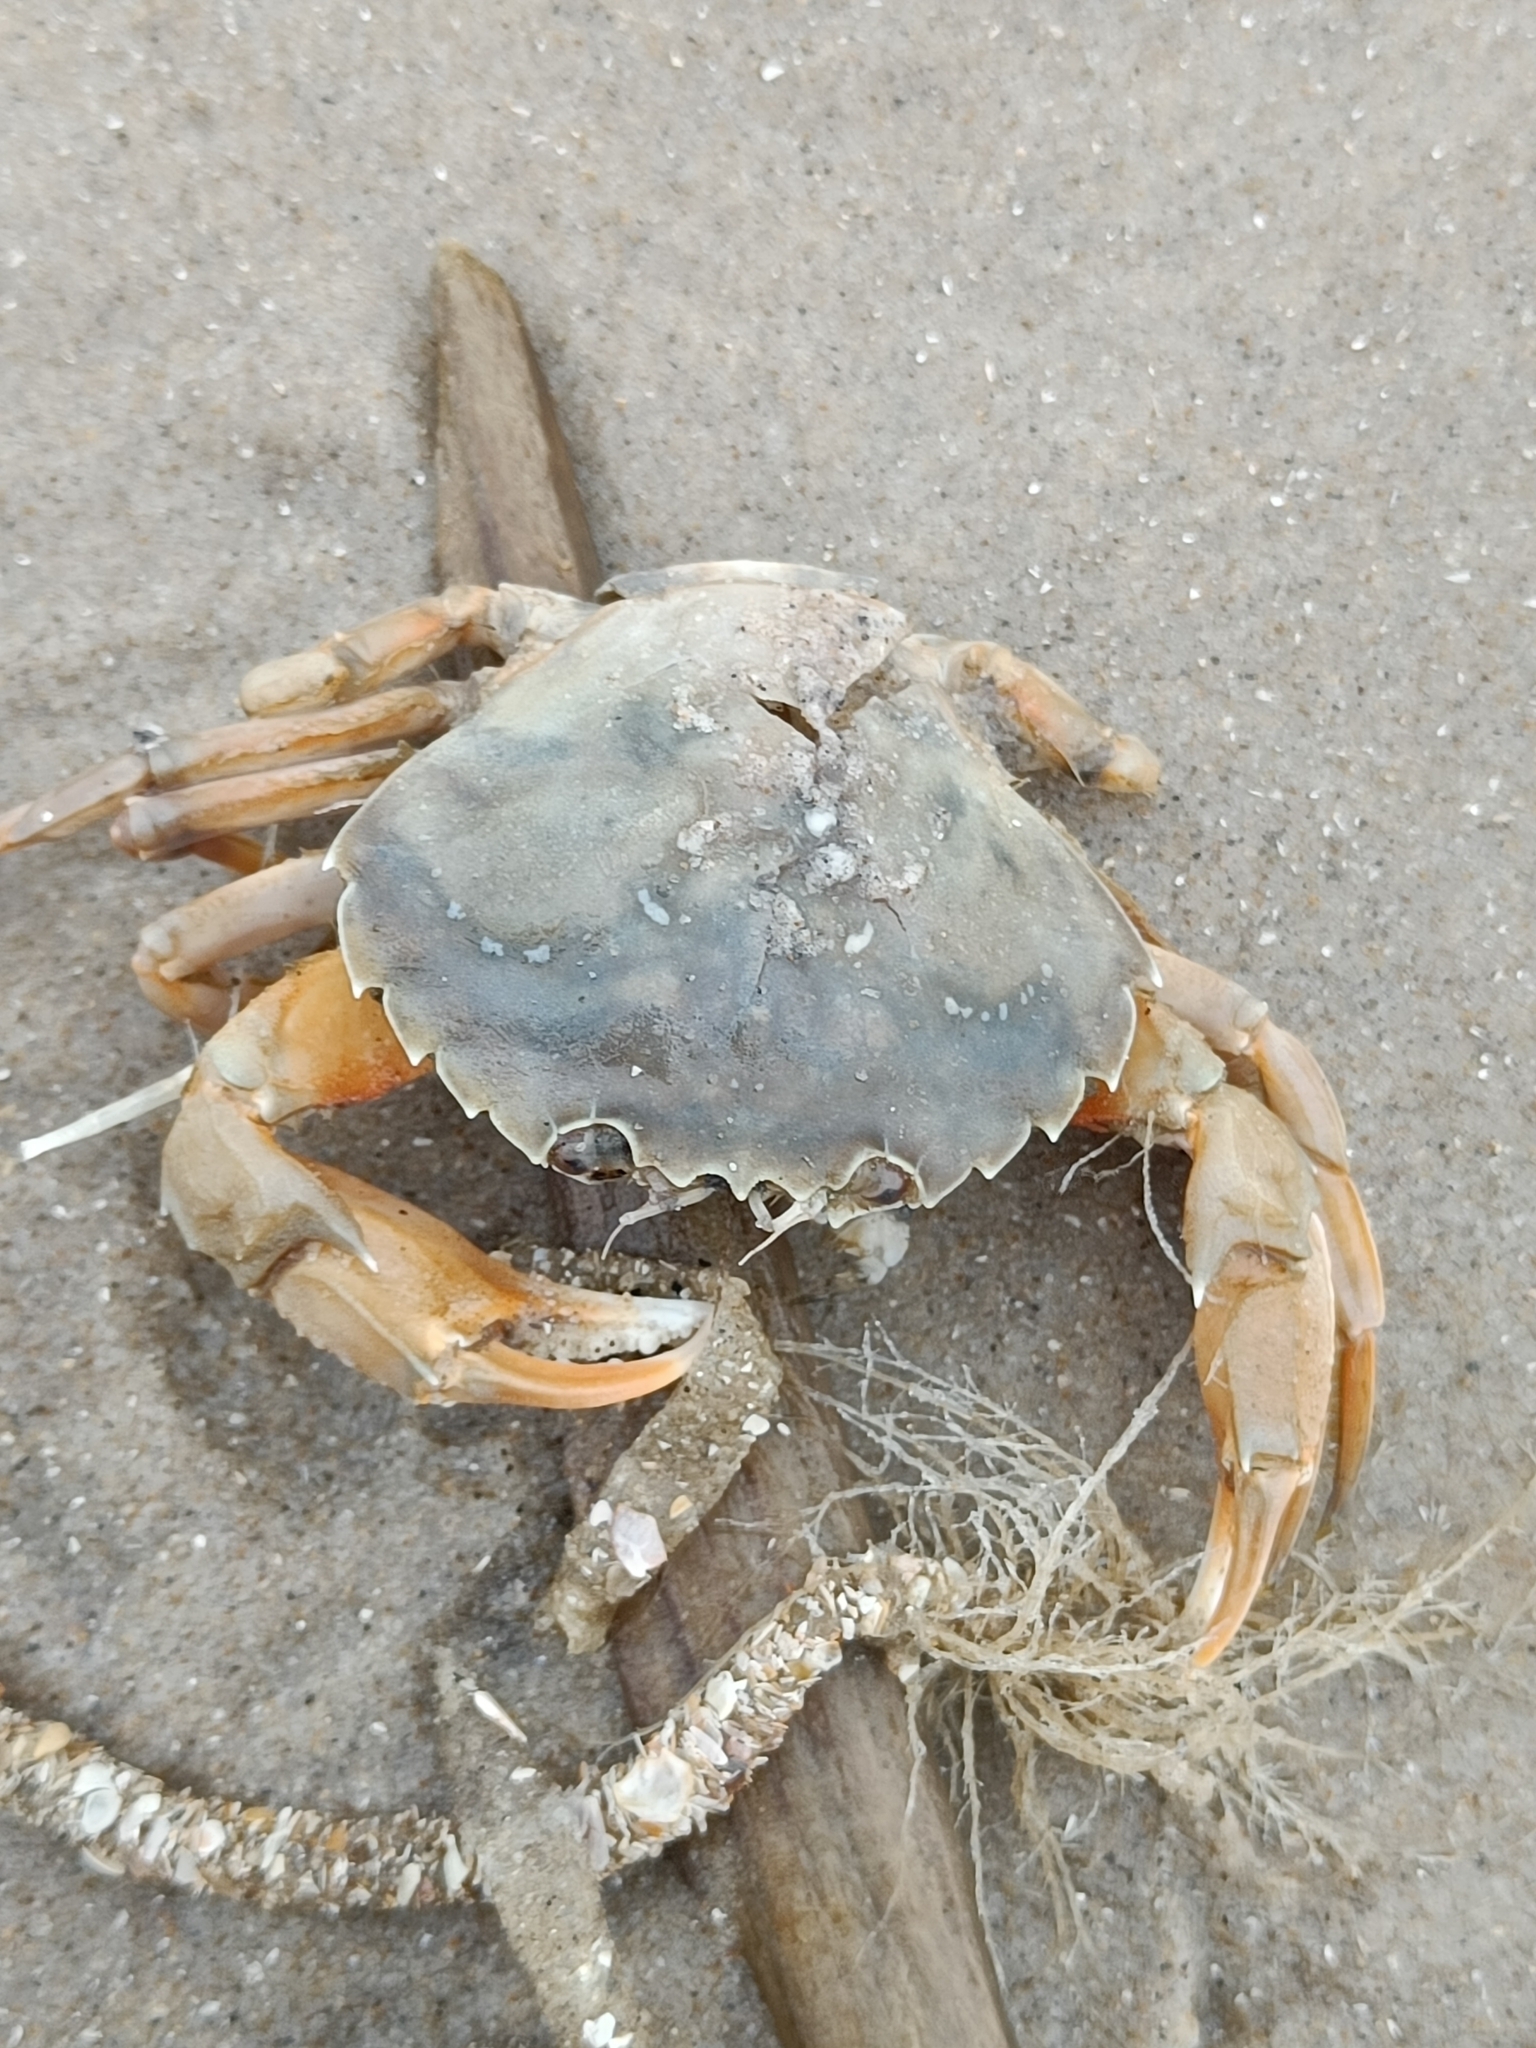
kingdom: Animalia
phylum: Arthropoda
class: Malacostraca
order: Decapoda
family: Polybiidae
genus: Liocarcinus
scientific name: Liocarcinus holsatus
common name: Flying crab
